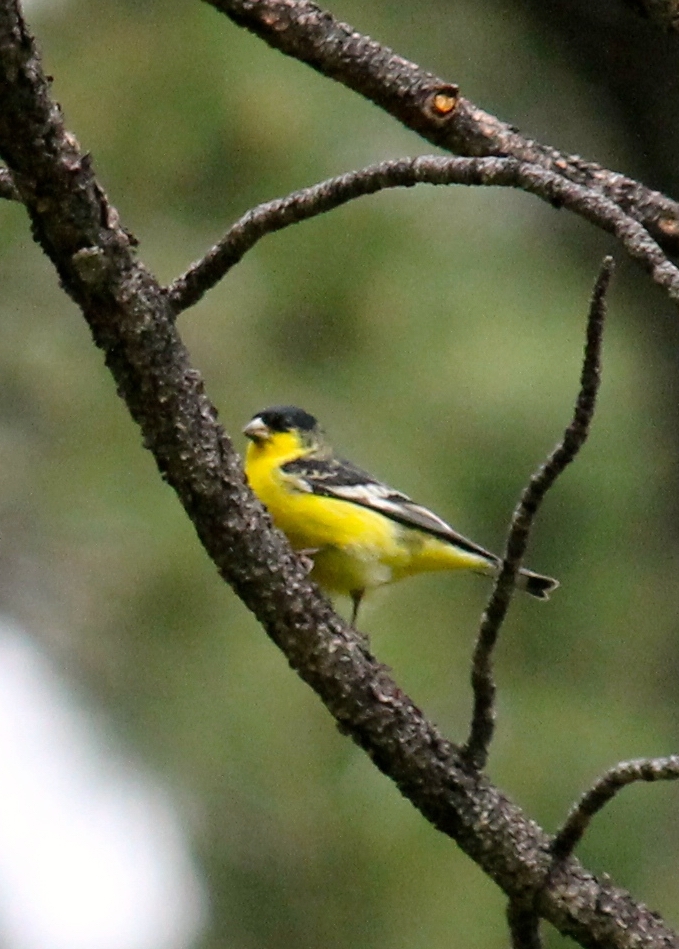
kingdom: Animalia
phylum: Chordata
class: Aves
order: Passeriformes
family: Fringillidae
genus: Spinus
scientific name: Spinus psaltria
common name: Lesser goldfinch
